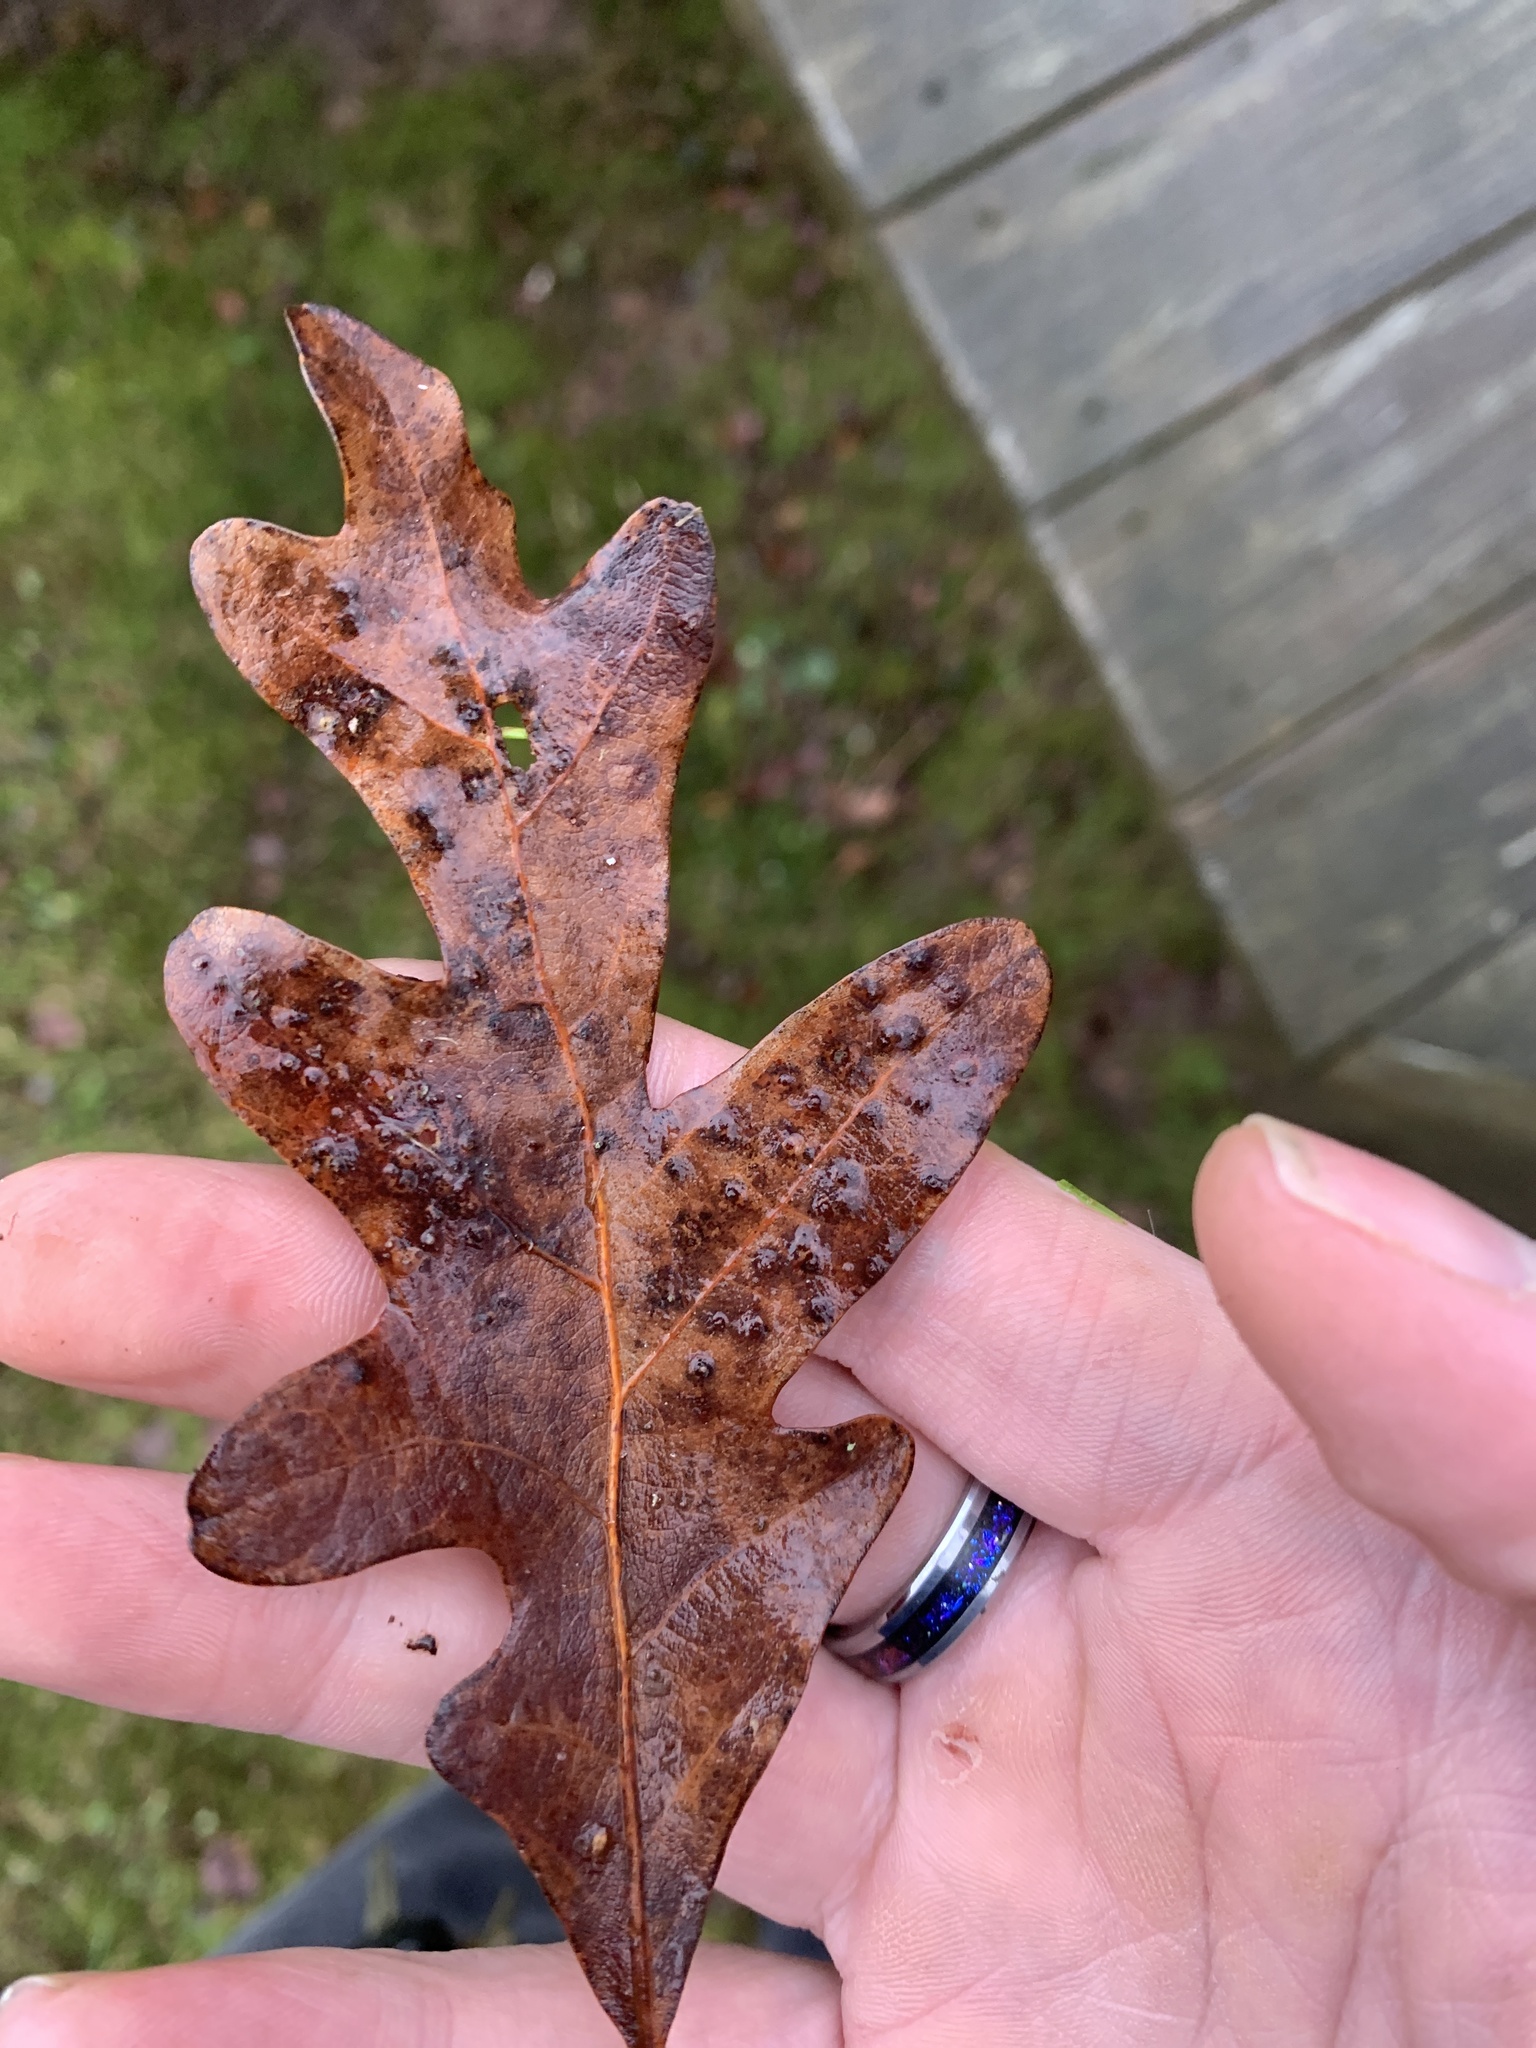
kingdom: Plantae
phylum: Tracheophyta
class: Magnoliopsida
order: Fagales
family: Fagaceae
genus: Quercus
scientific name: Quercus alba
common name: White oak
